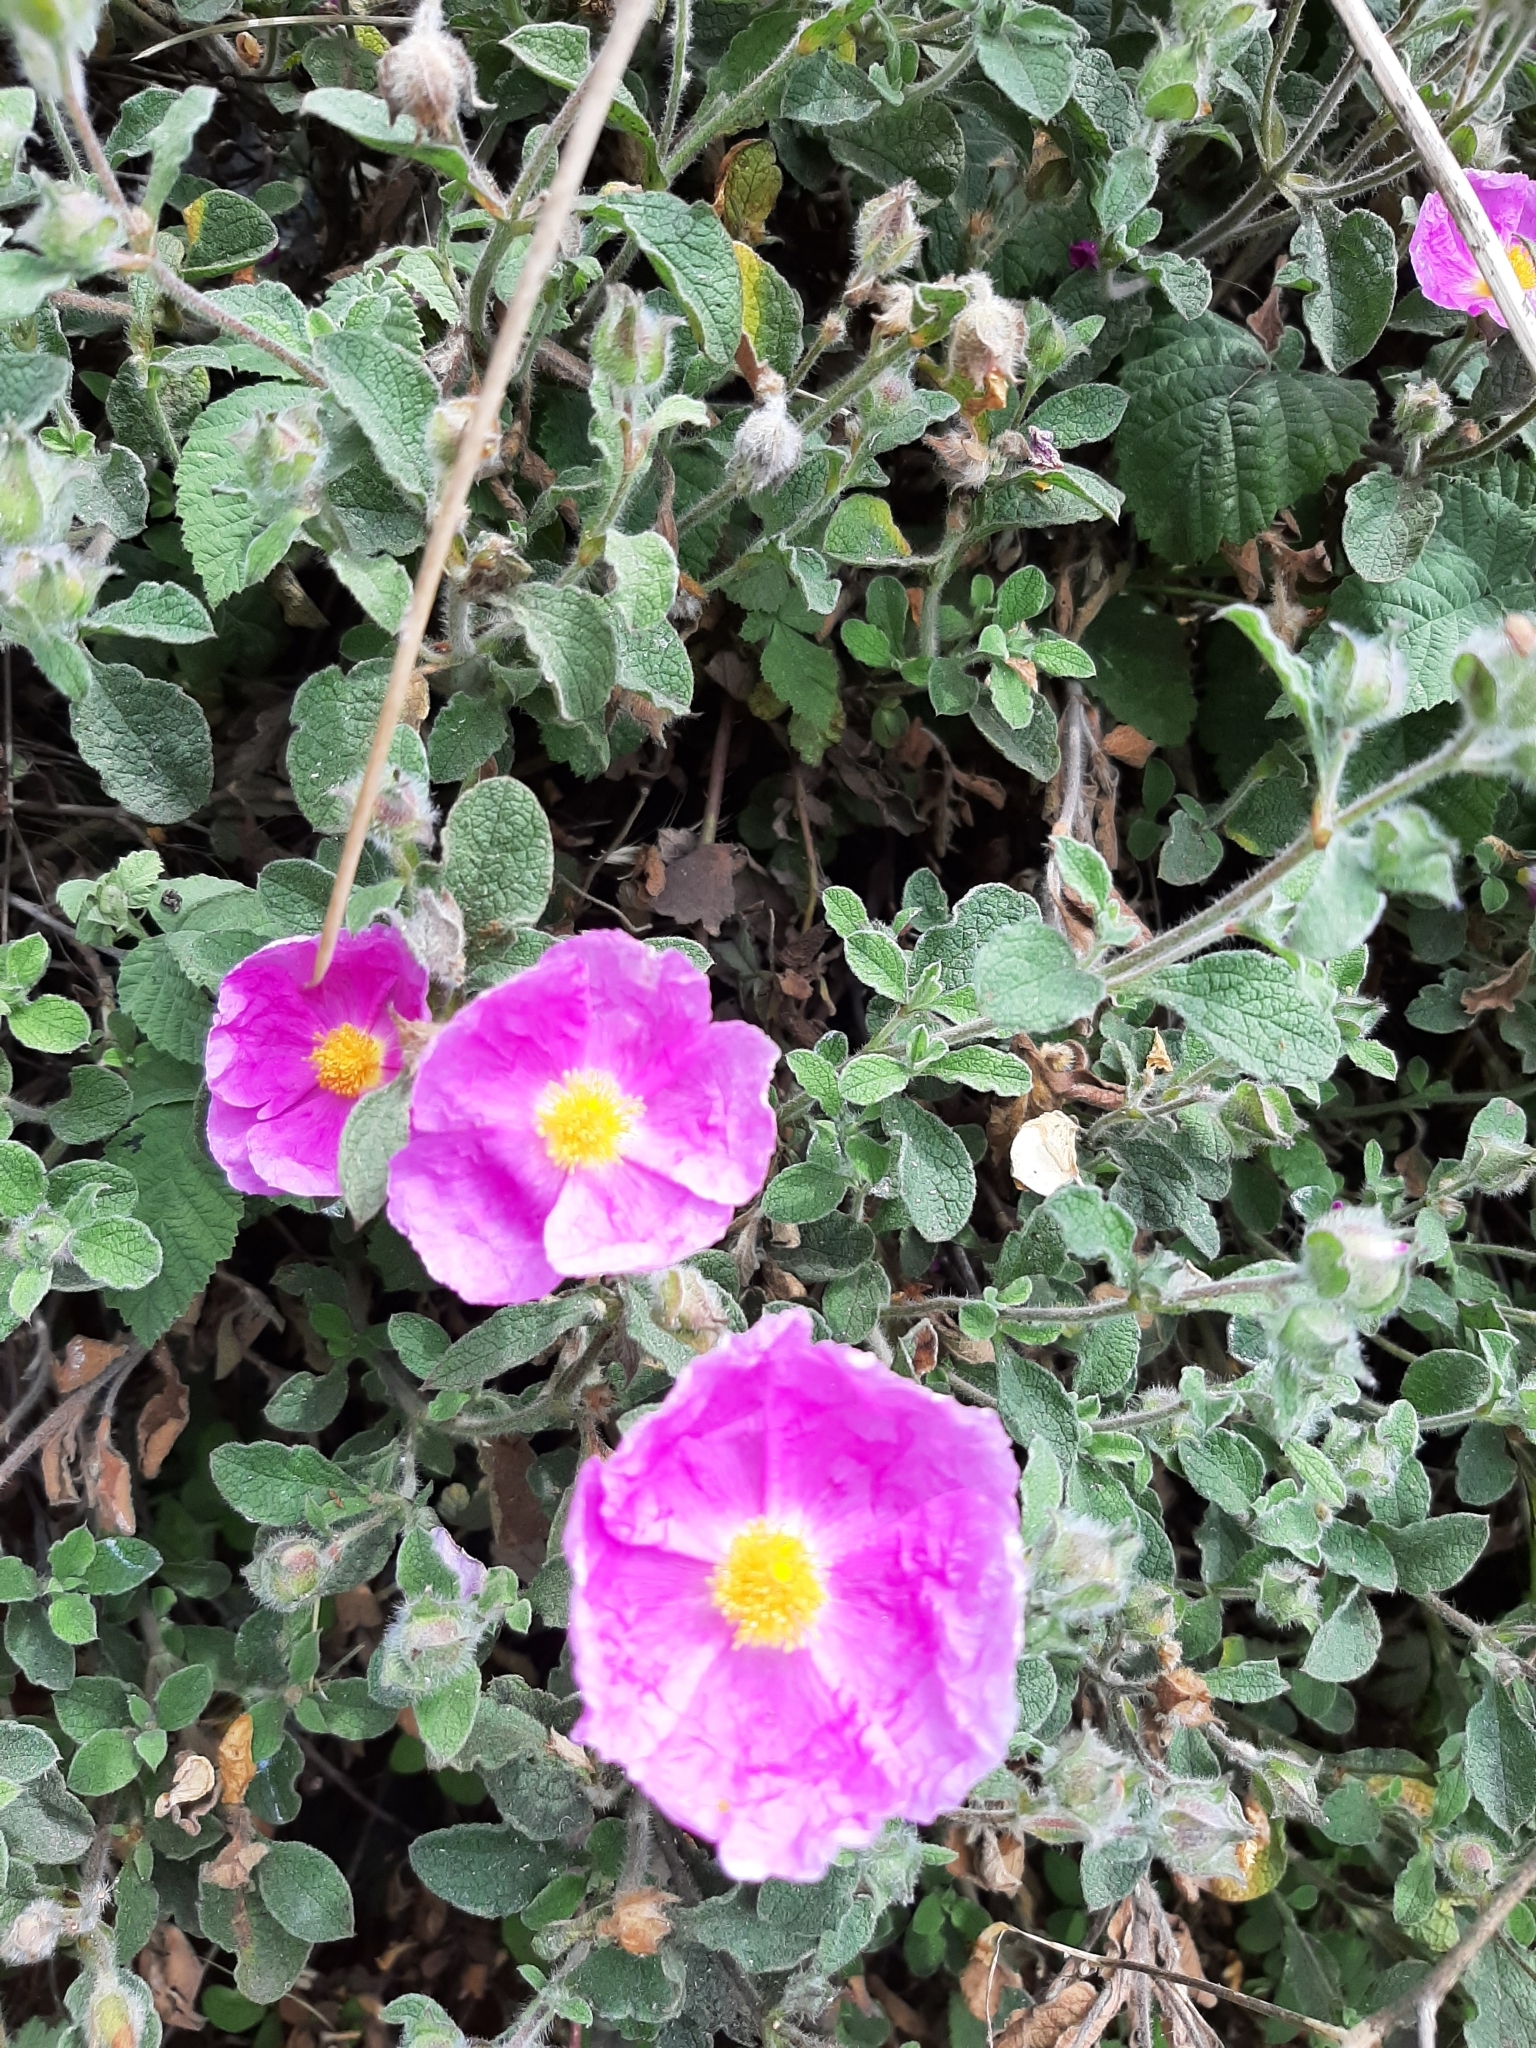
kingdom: Plantae
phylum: Tracheophyta
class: Magnoliopsida
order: Malvales
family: Cistaceae
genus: Cistus
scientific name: Cistus creticus
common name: Cretan rockrose
